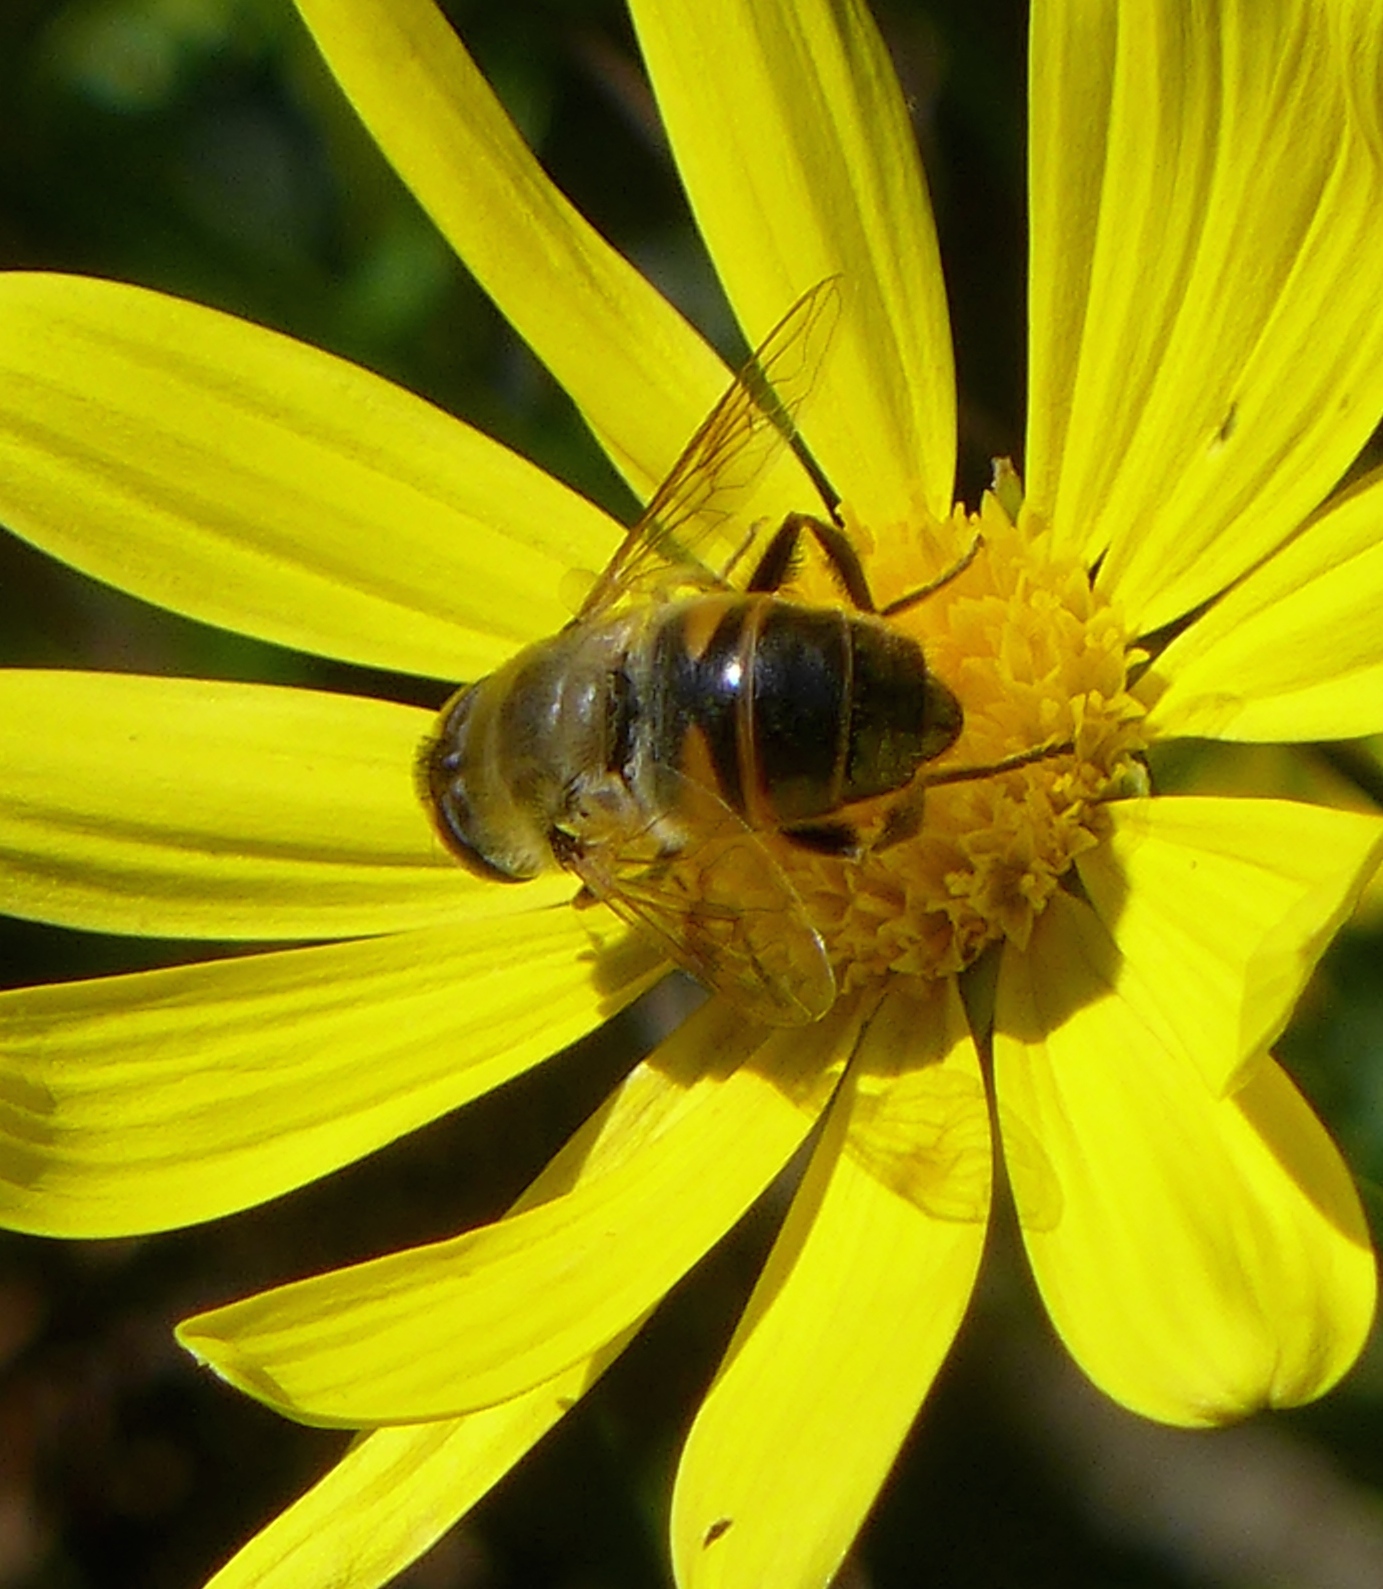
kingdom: Animalia
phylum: Arthropoda
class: Insecta
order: Diptera
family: Syrphidae
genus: Eristalis
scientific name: Eristalis tenax
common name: Drone fly
